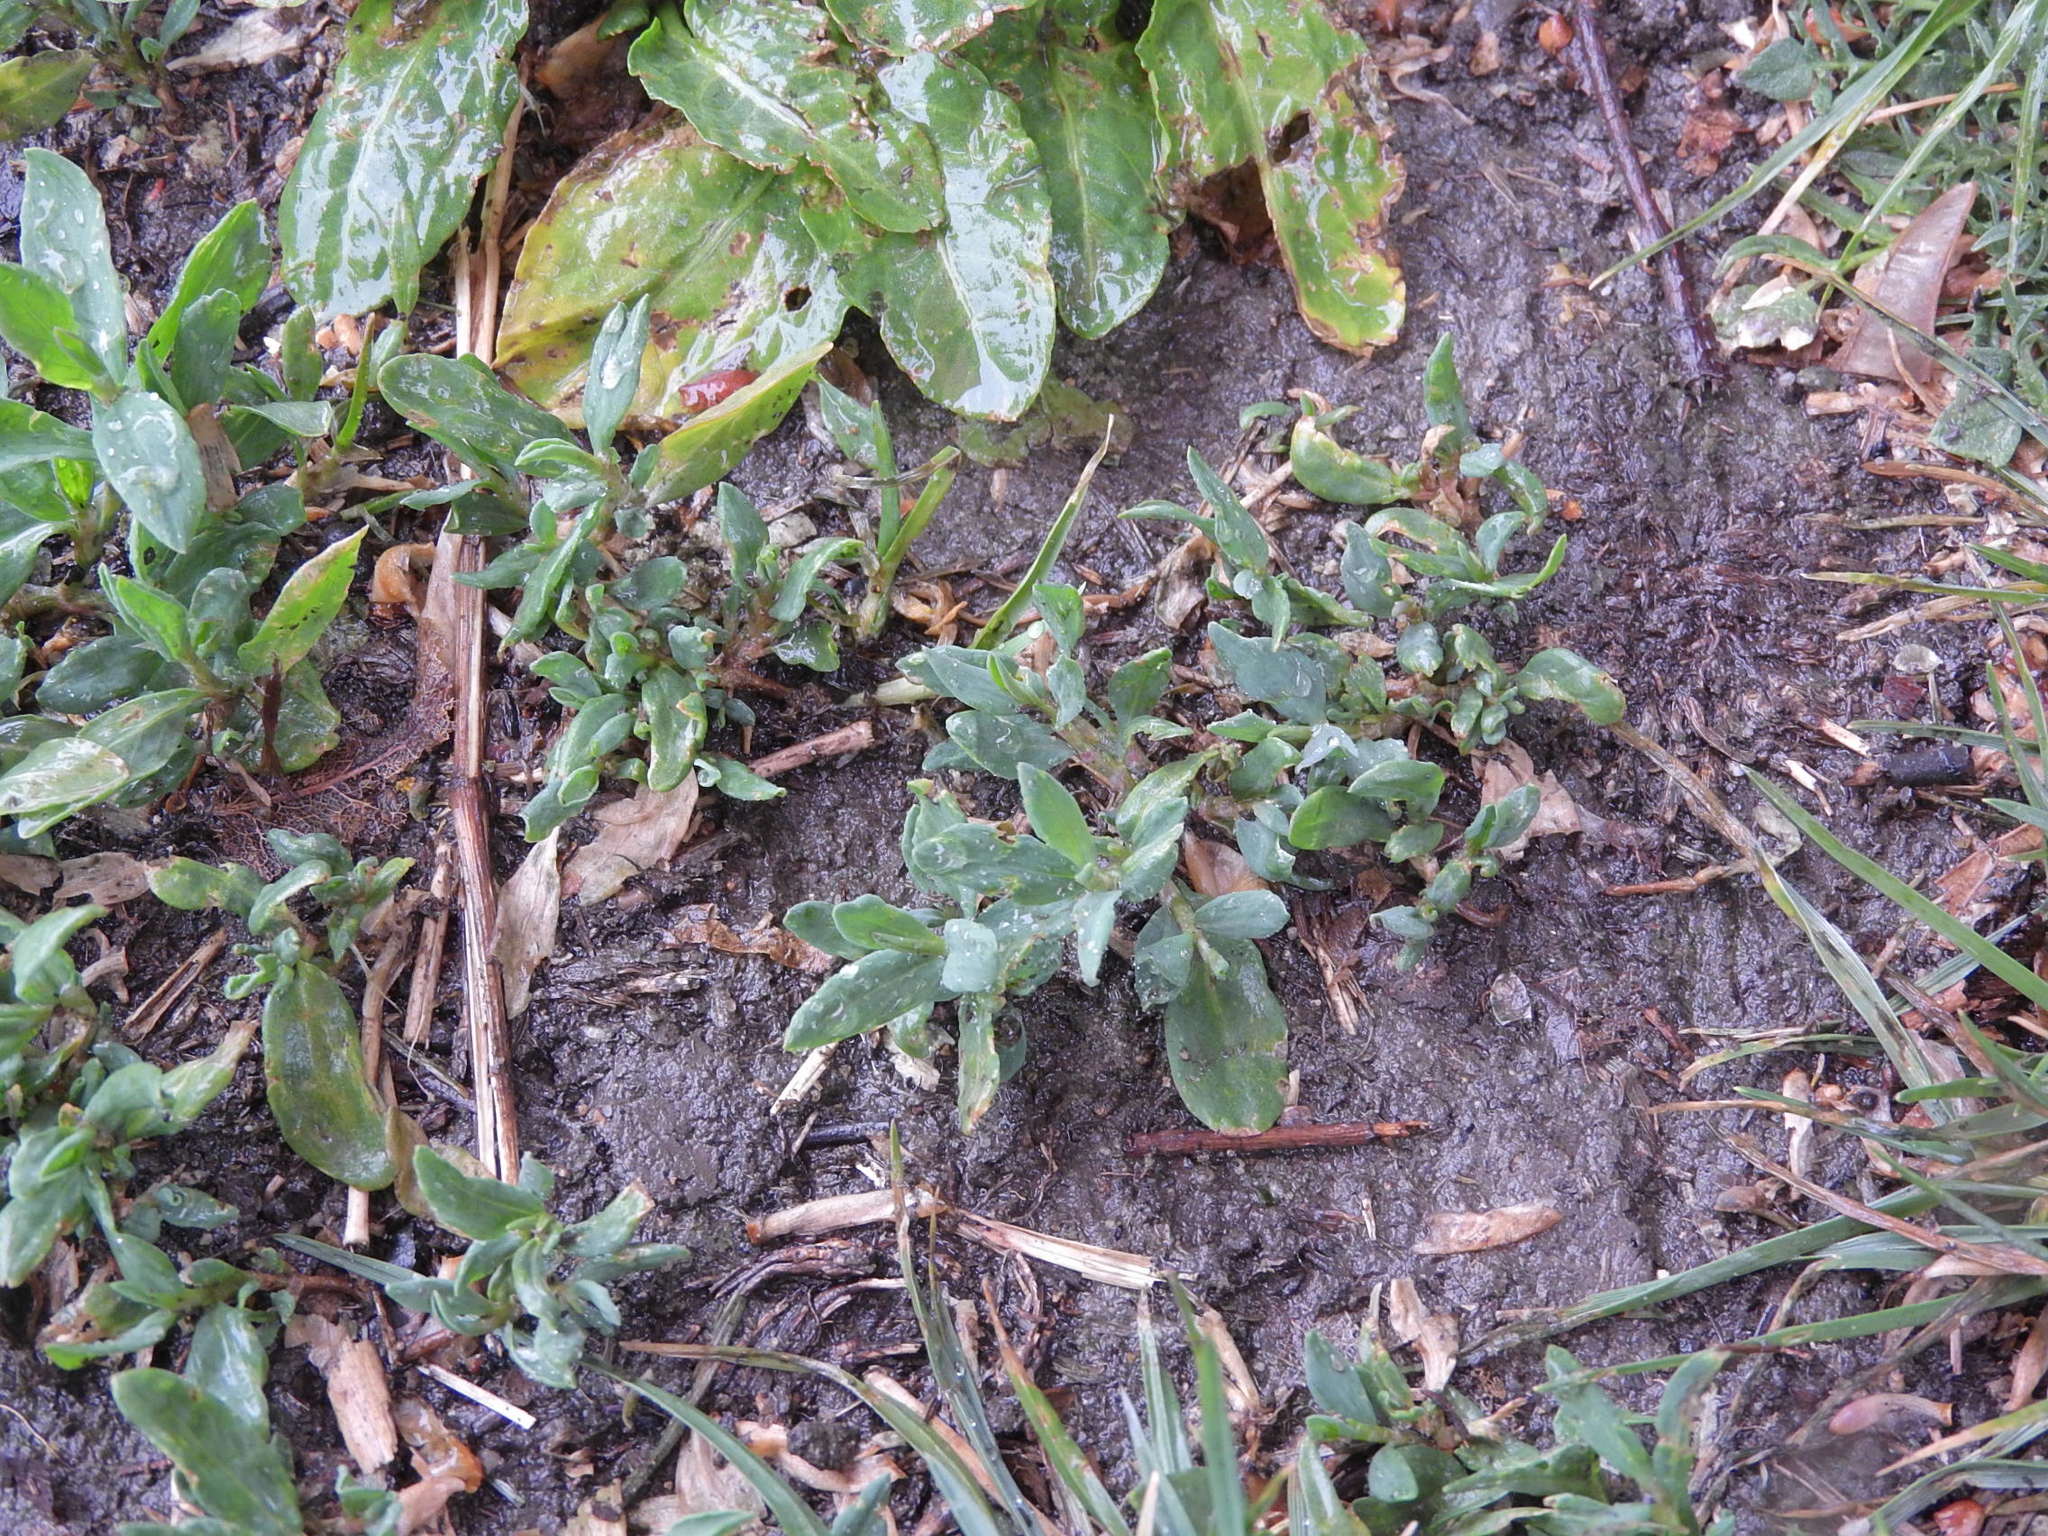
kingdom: Plantae
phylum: Tracheophyta
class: Magnoliopsida
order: Caryophyllales
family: Polygonaceae
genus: Polygonum
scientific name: Polygonum aviculare
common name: Prostrate knotweed
